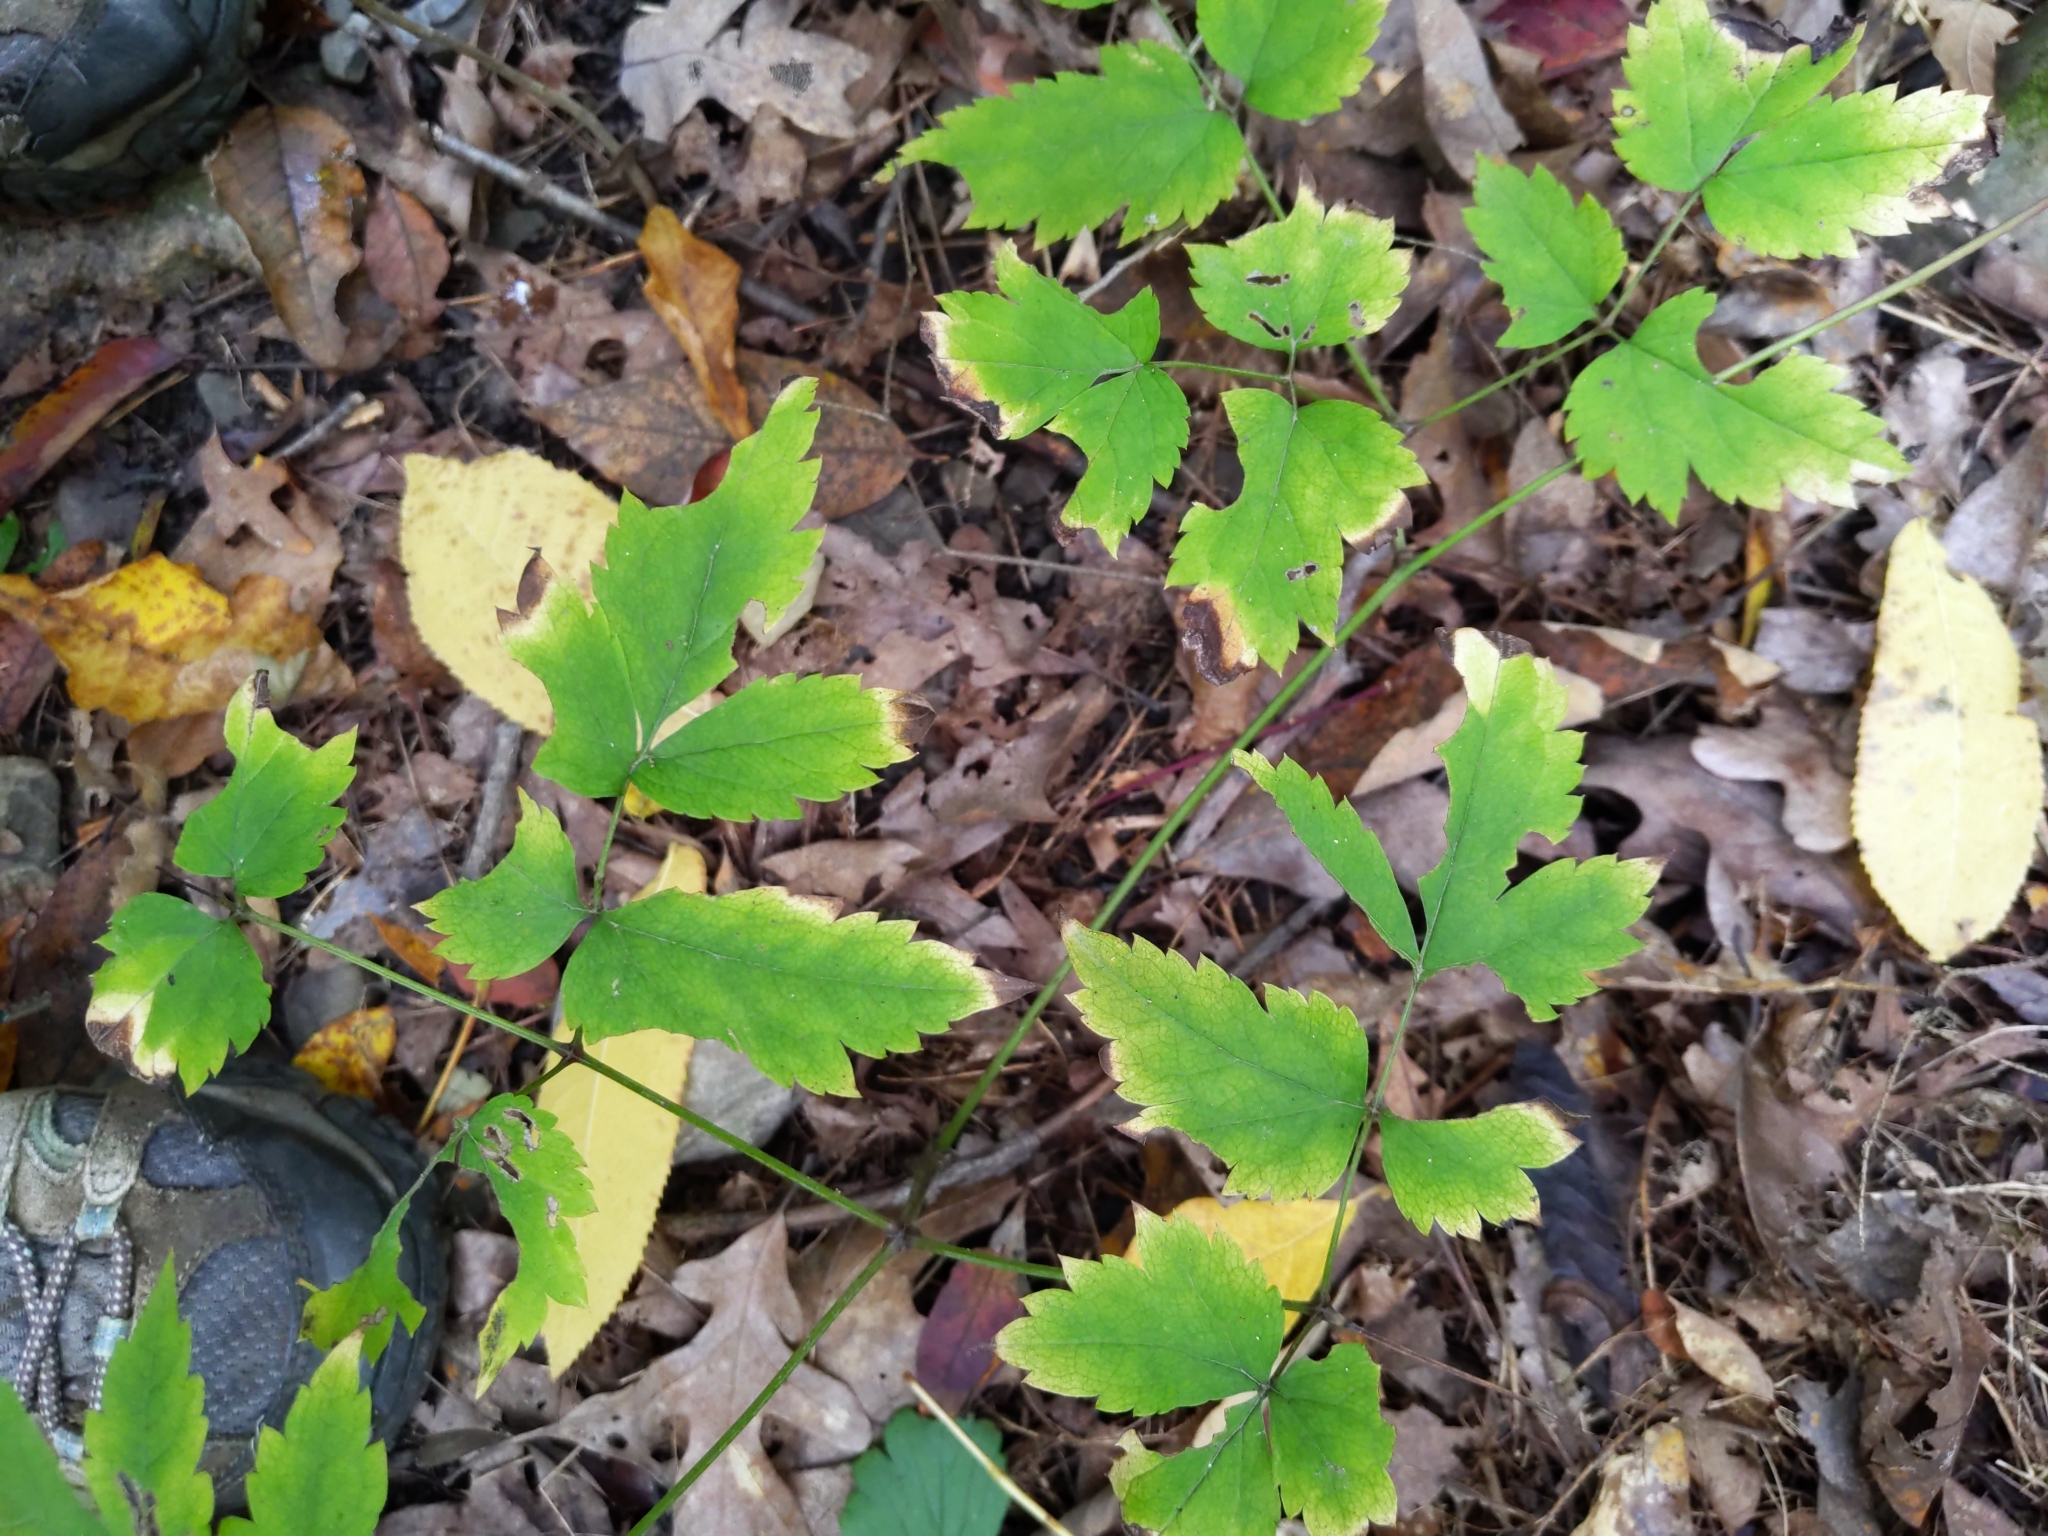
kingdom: Plantae
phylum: Tracheophyta
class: Magnoliopsida
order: Ranunculales
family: Ranunculaceae
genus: Actaea
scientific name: Actaea pachypoda
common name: Doll's-eyes
